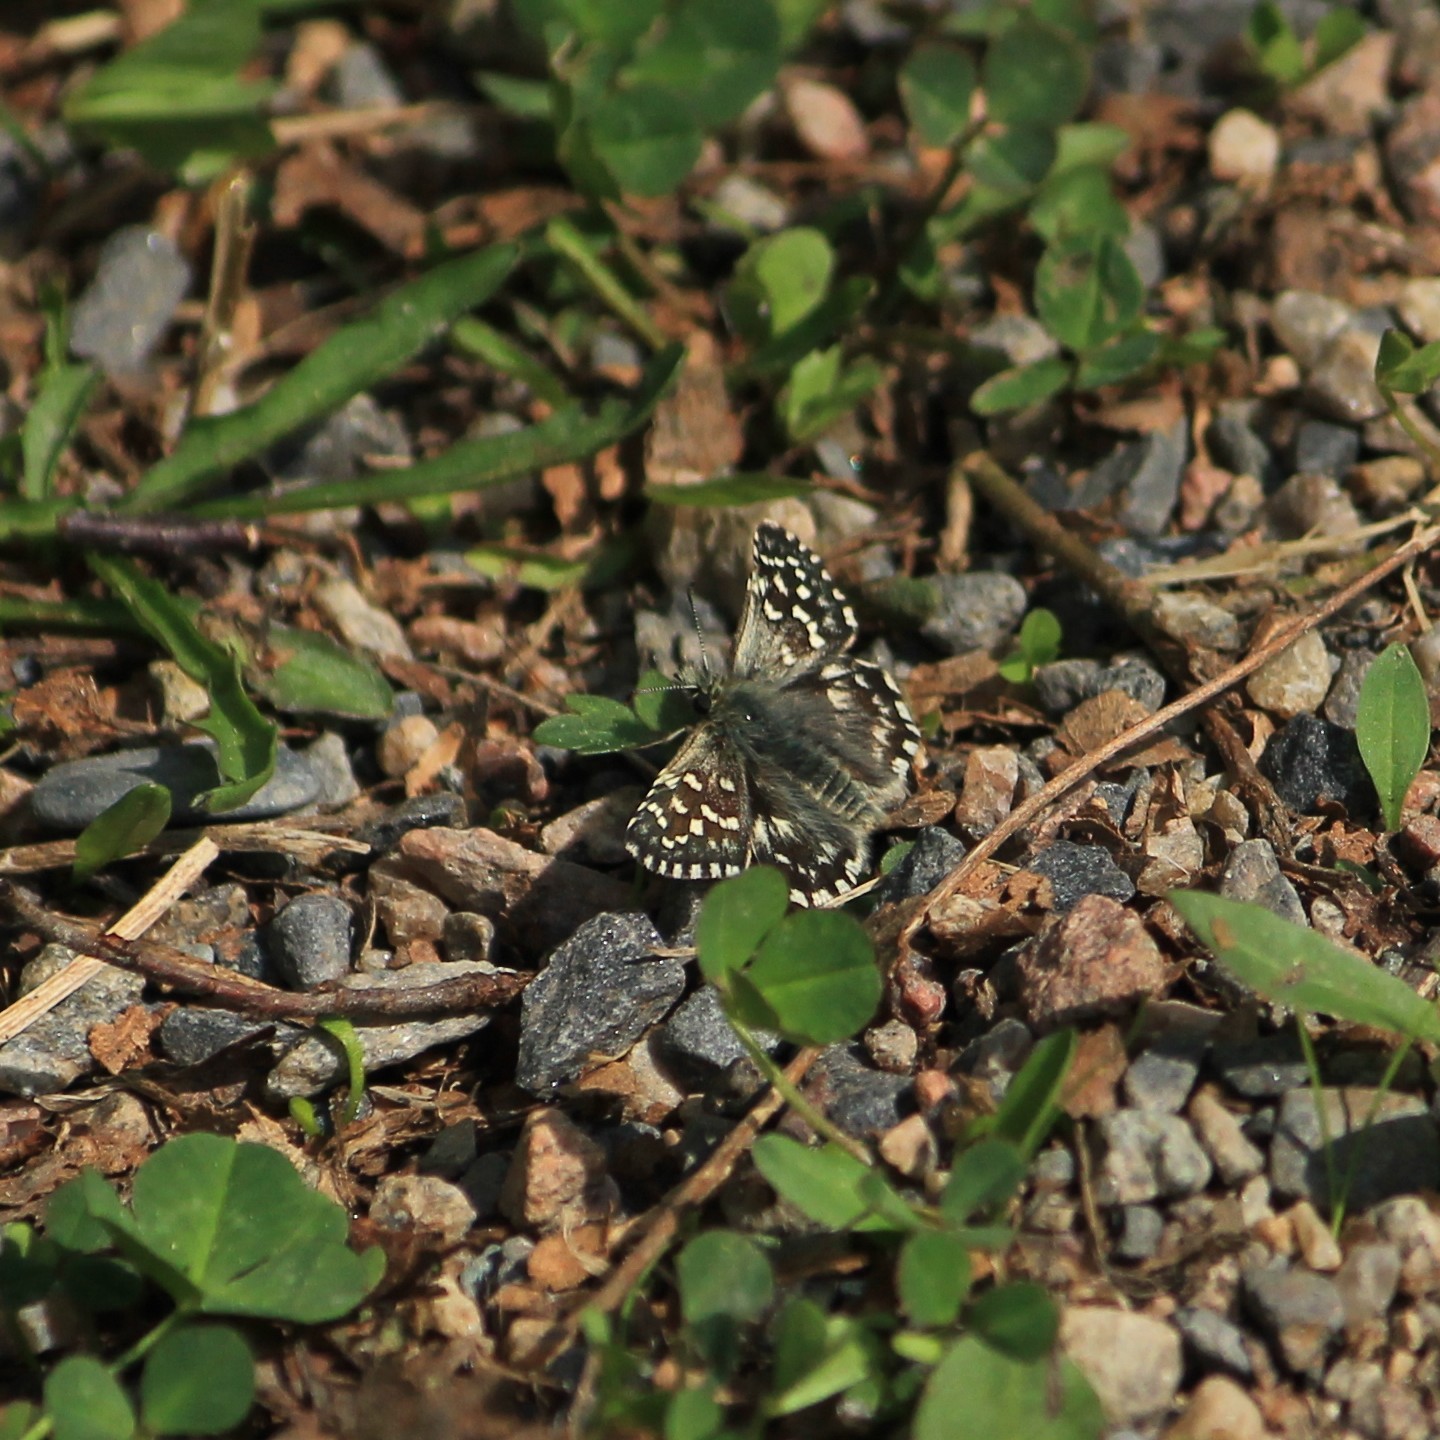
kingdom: Animalia
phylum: Arthropoda
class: Insecta
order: Lepidoptera
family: Hesperiidae
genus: Pyrgus
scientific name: Pyrgus malvae
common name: Grizzled skipper
